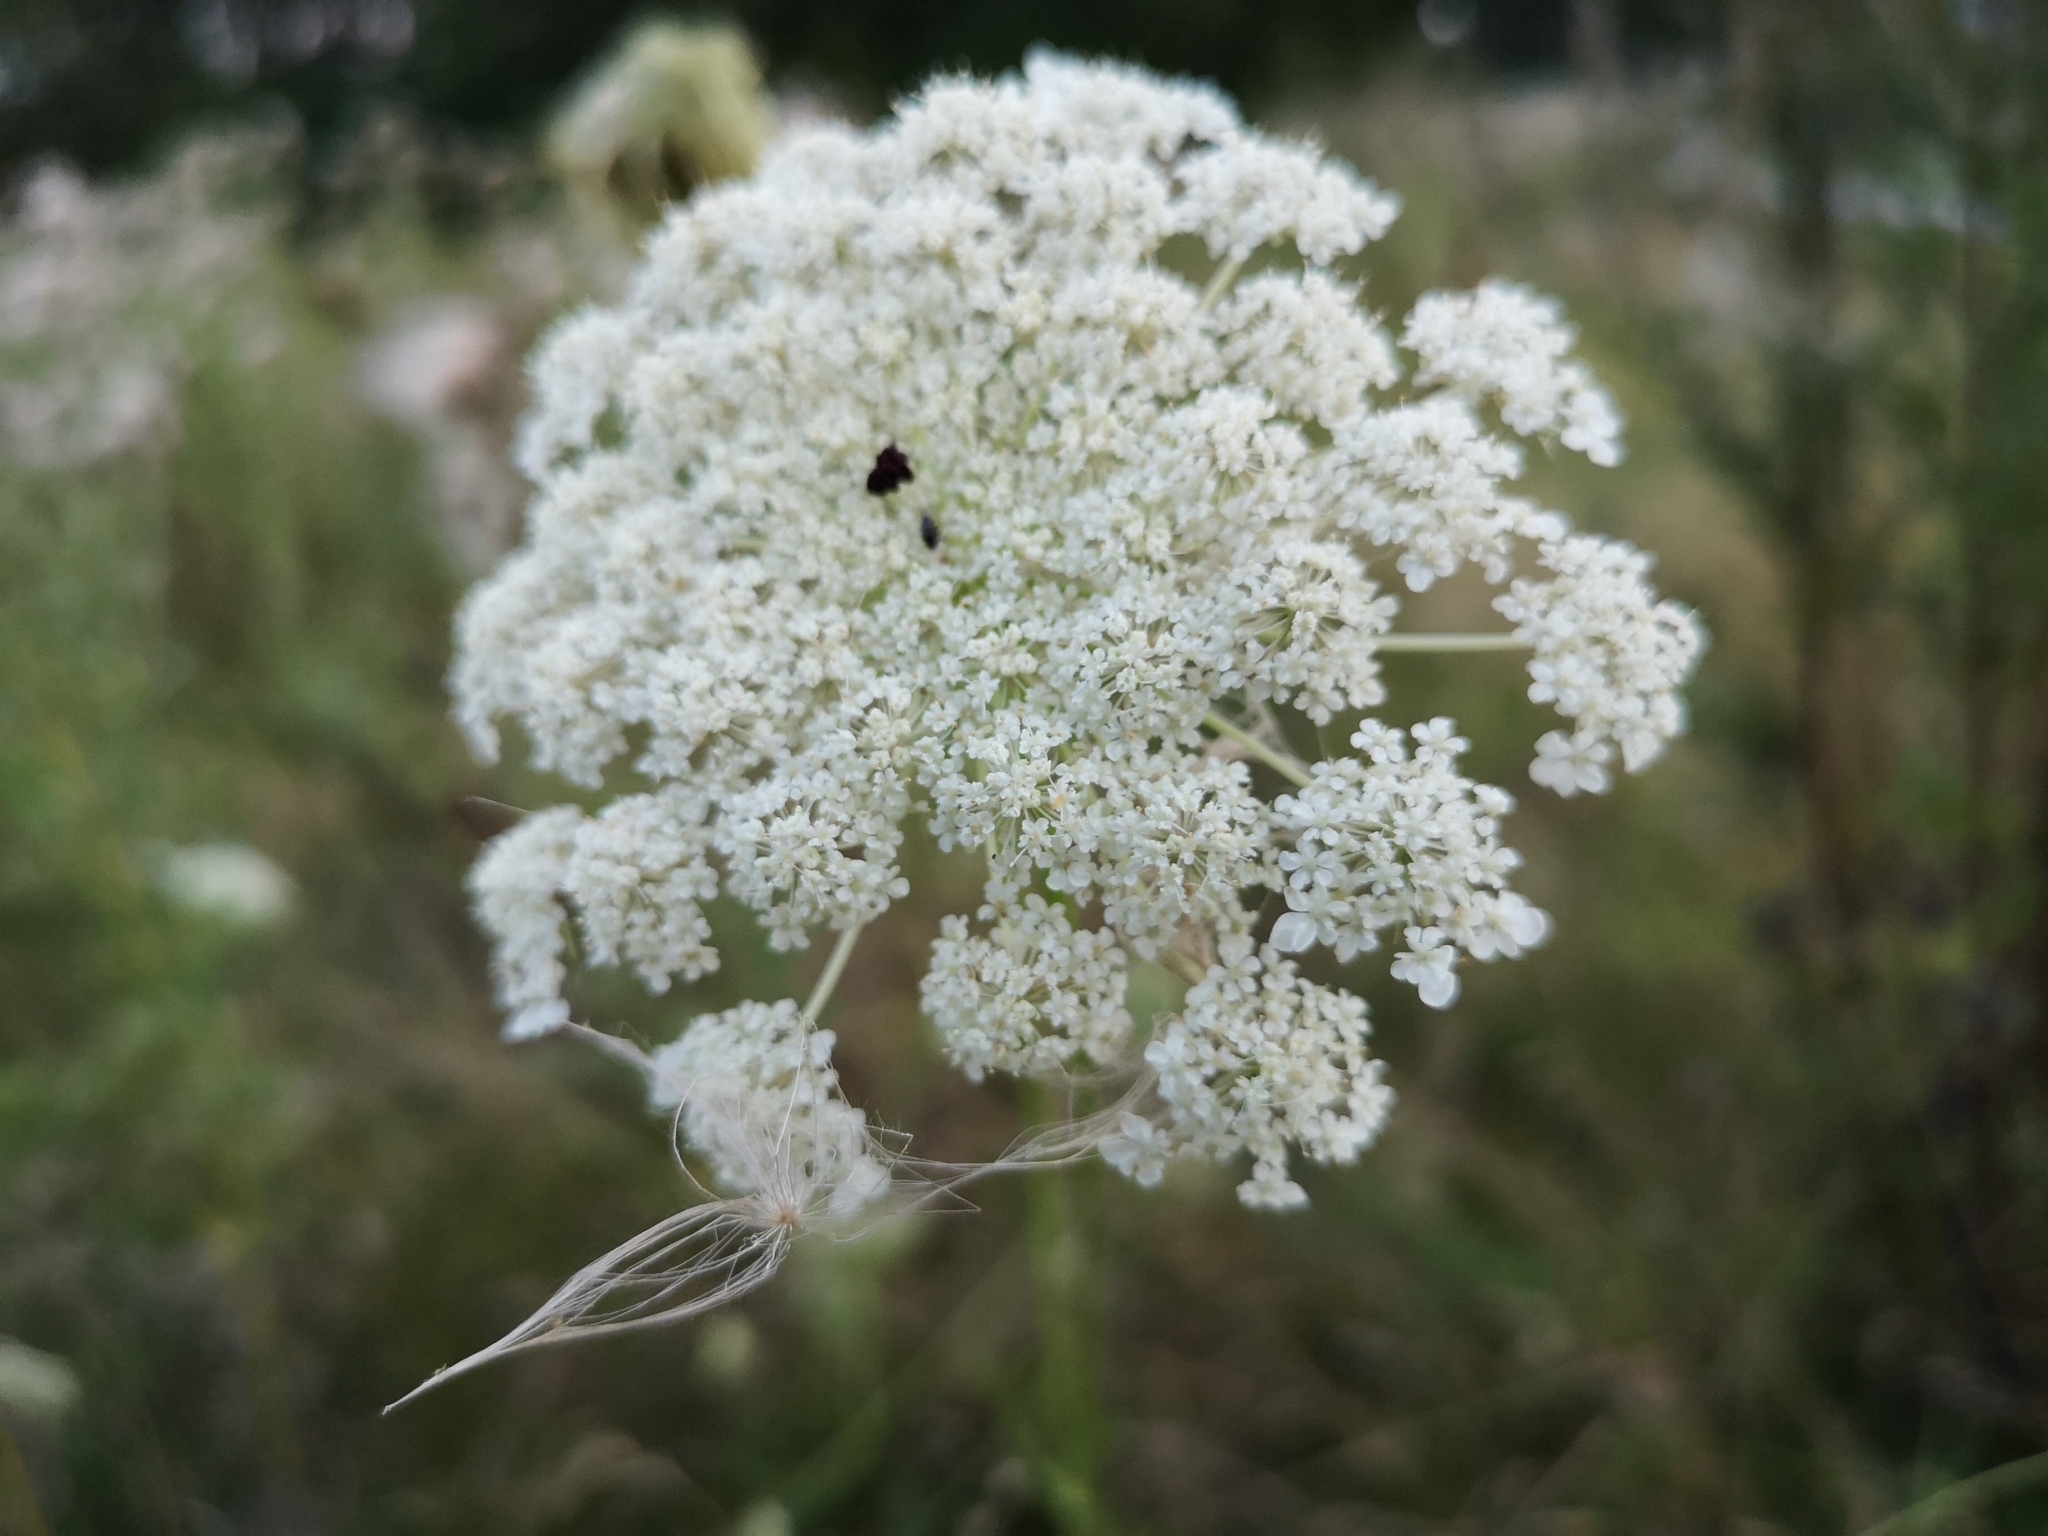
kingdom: Plantae
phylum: Tracheophyta
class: Magnoliopsida
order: Apiales
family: Apiaceae
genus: Daucus
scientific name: Daucus carota
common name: Wild carrot
